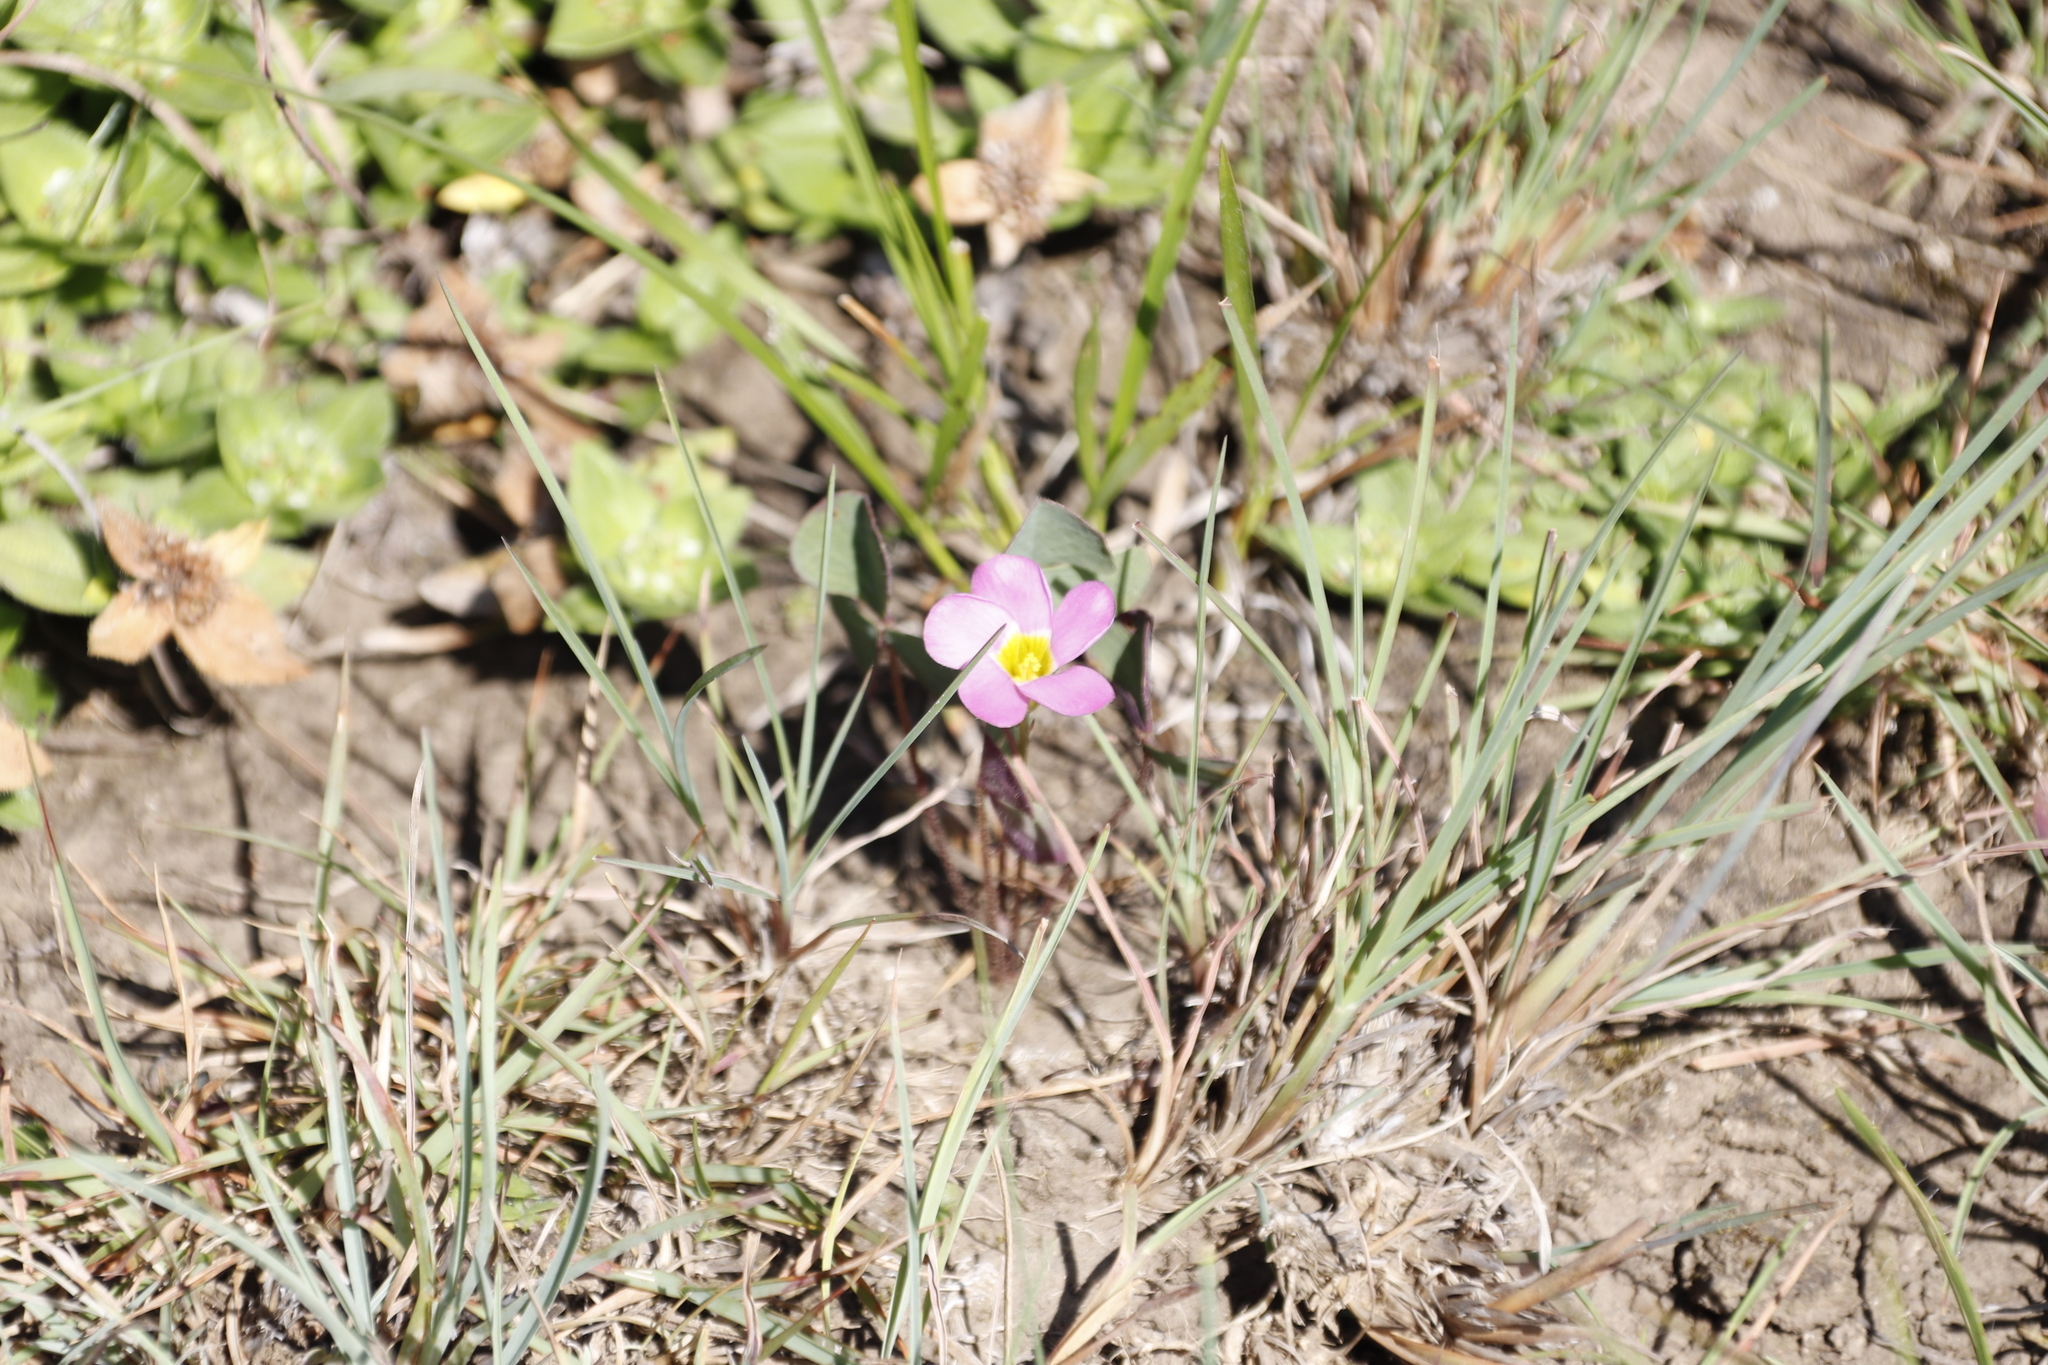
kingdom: Plantae
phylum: Tracheophyta
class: Magnoliopsida
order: Oxalidales
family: Oxalidaceae
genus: Oxalis
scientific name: Oxalis obliquifolia
